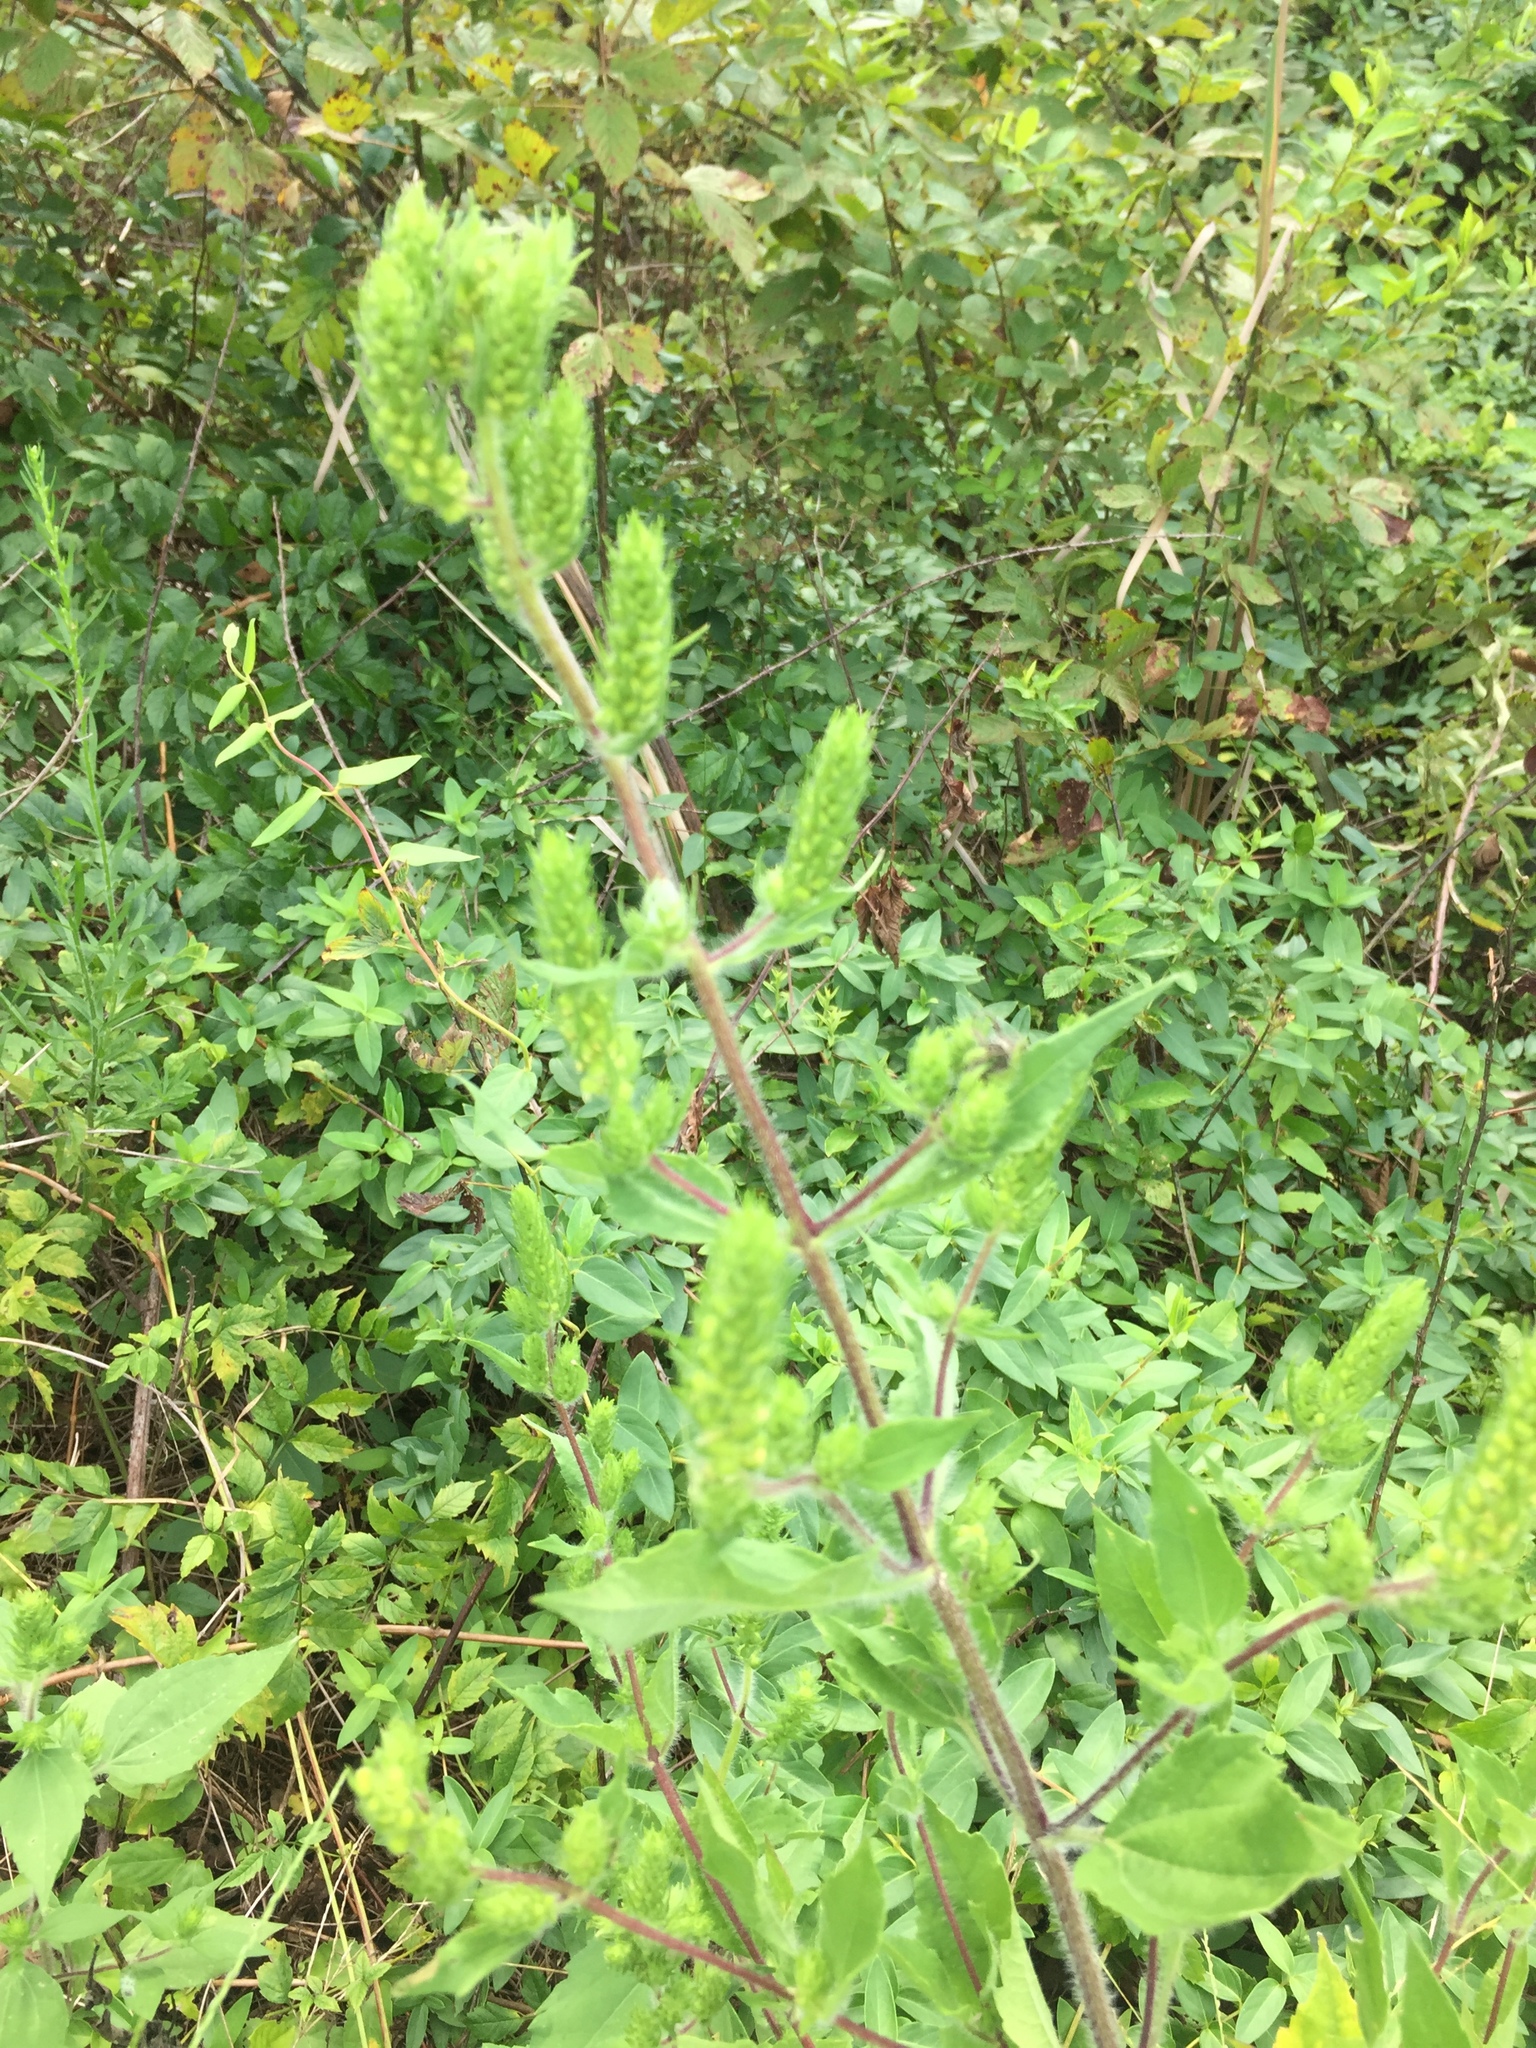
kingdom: Plantae
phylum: Tracheophyta
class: Magnoliopsida
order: Asterales
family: Asteraceae
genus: Iva
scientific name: Iva annua
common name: Marsh-elder
